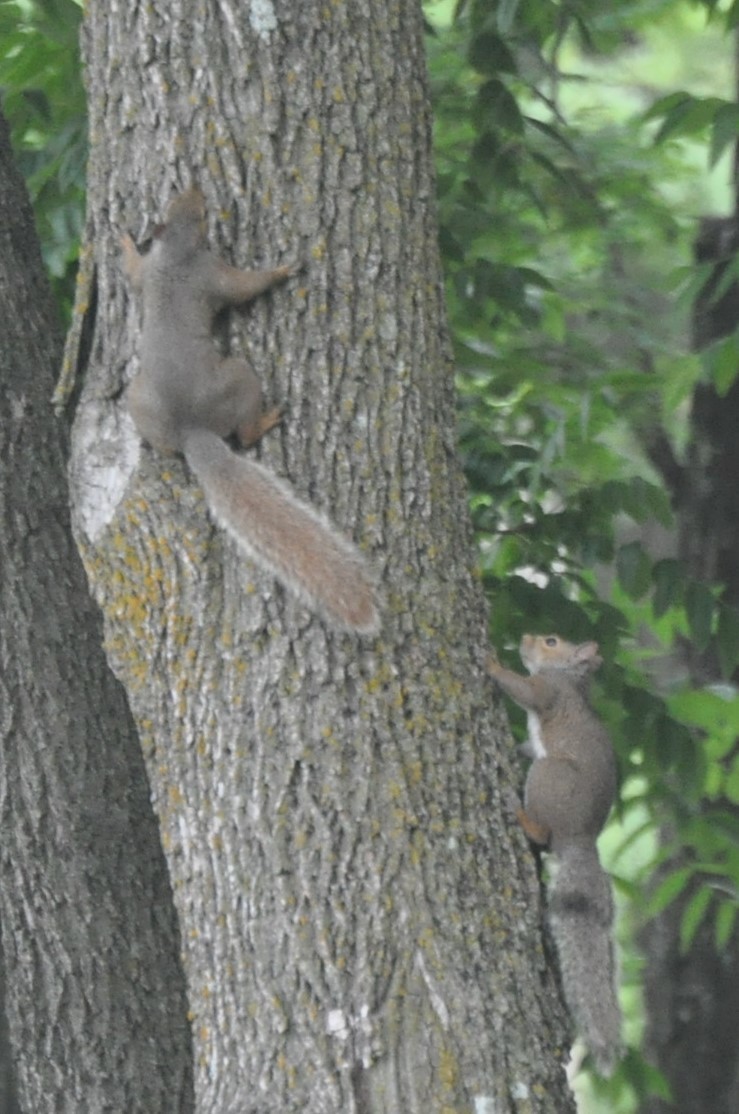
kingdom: Animalia
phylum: Chordata
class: Mammalia
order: Rodentia
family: Sciuridae
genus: Sciurus
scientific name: Sciurus carolinensis
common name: Eastern gray squirrel
